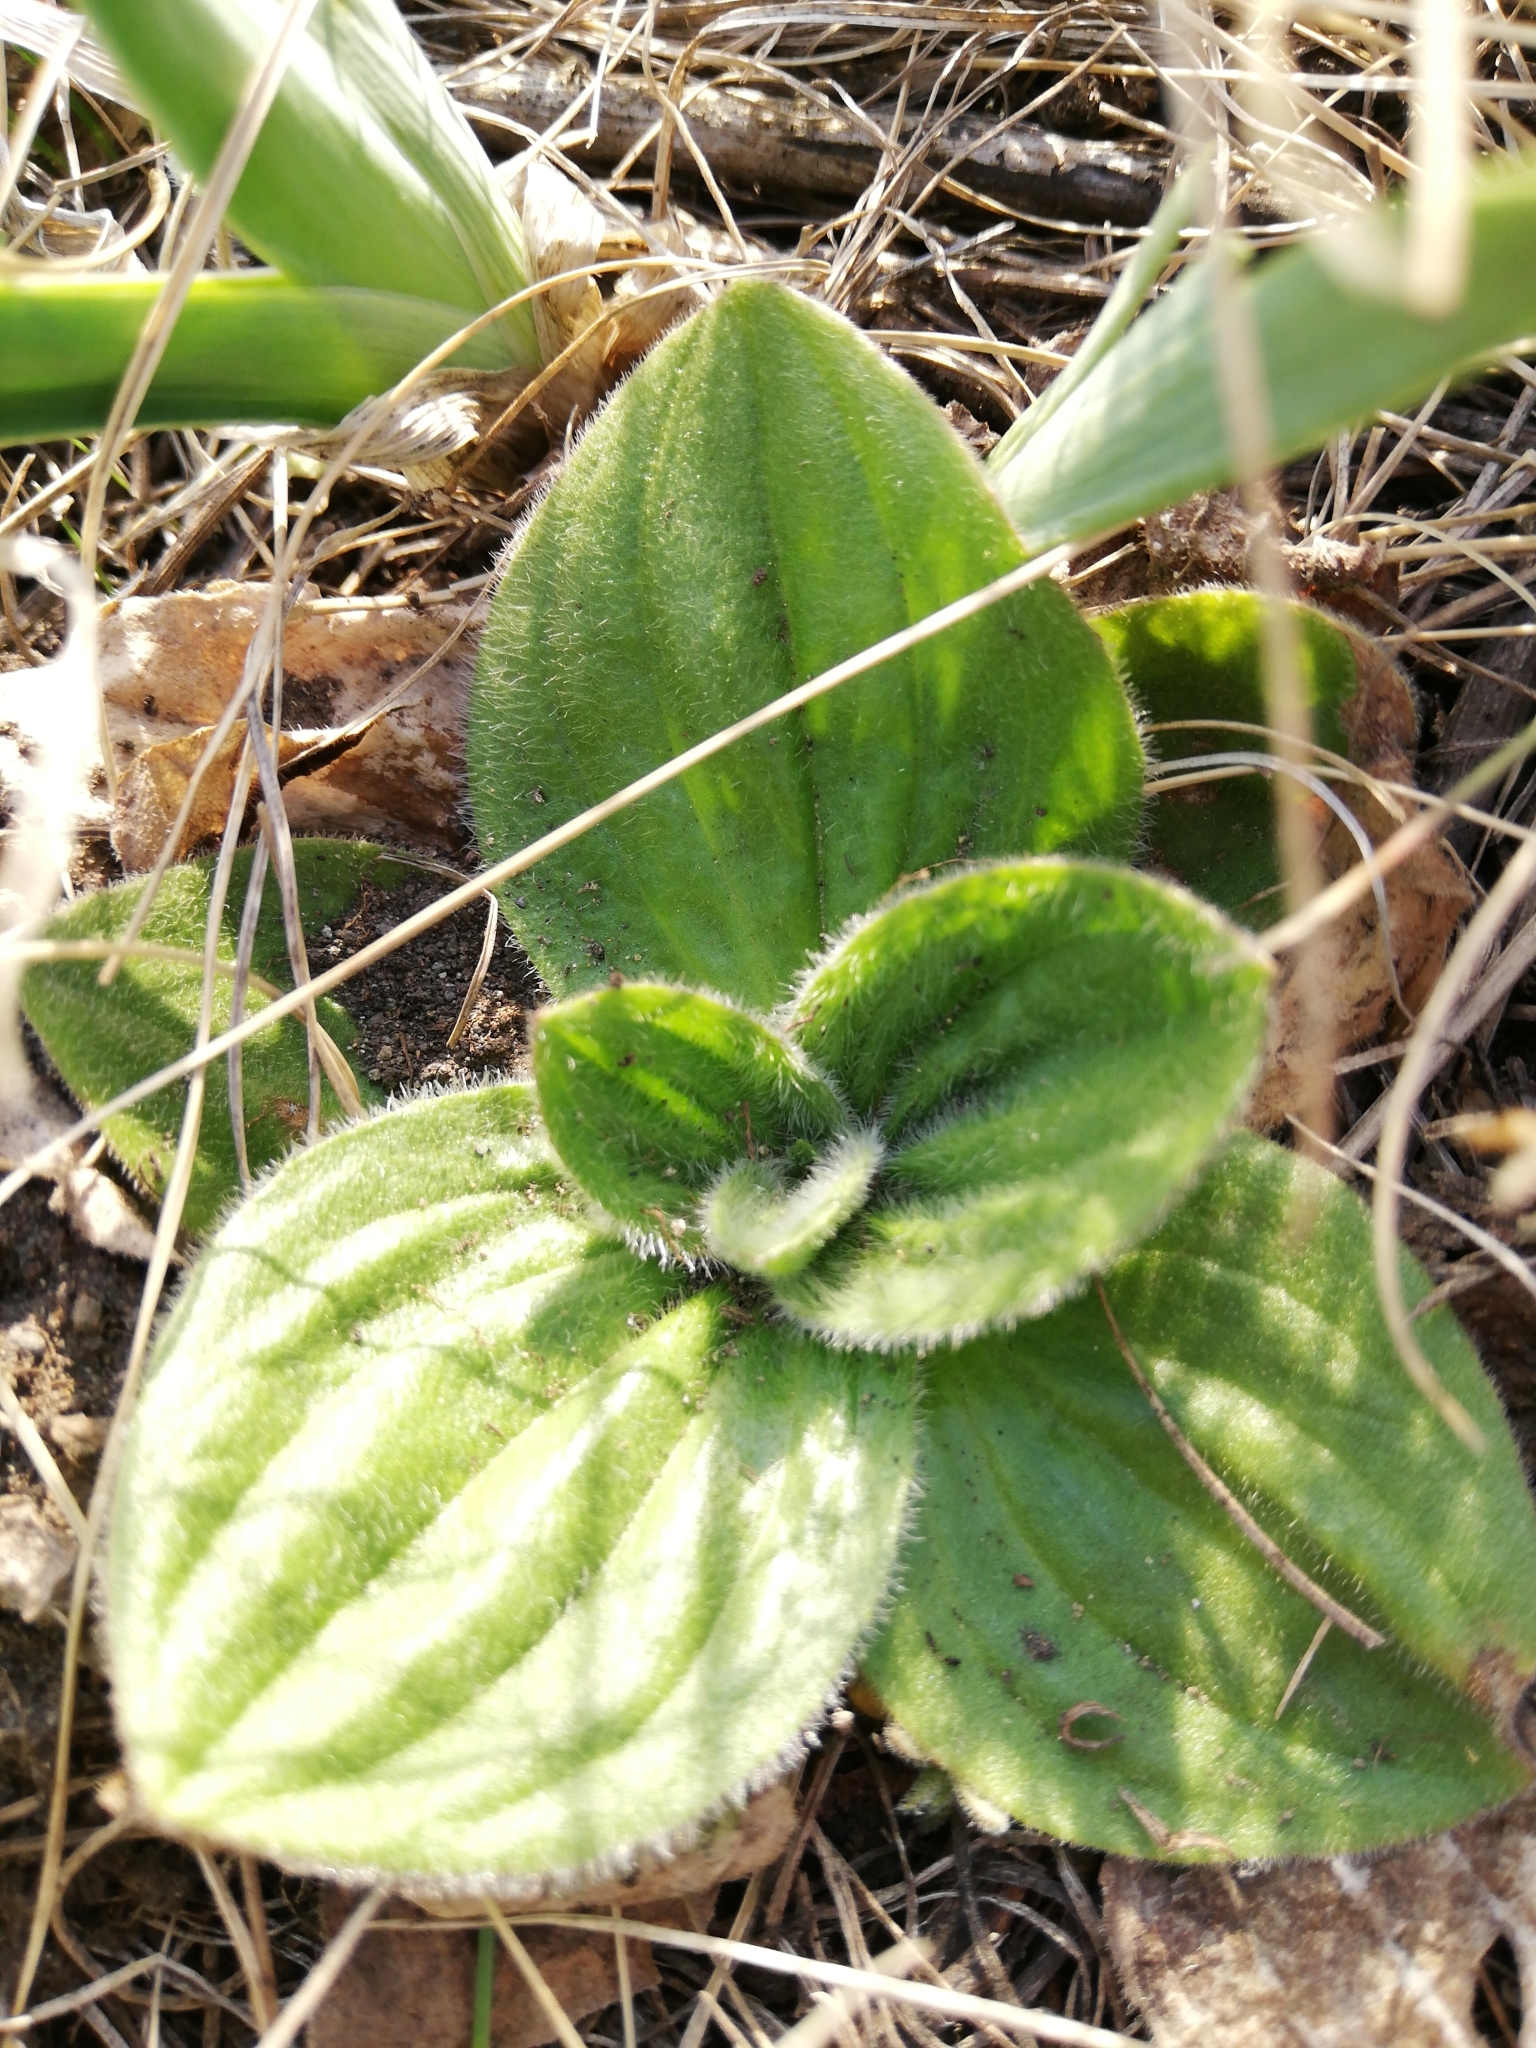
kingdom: Plantae
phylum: Tracheophyta
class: Magnoliopsida
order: Lamiales
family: Plantaginaceae
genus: Plantago
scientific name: Plantago media
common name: Hoary plantain
